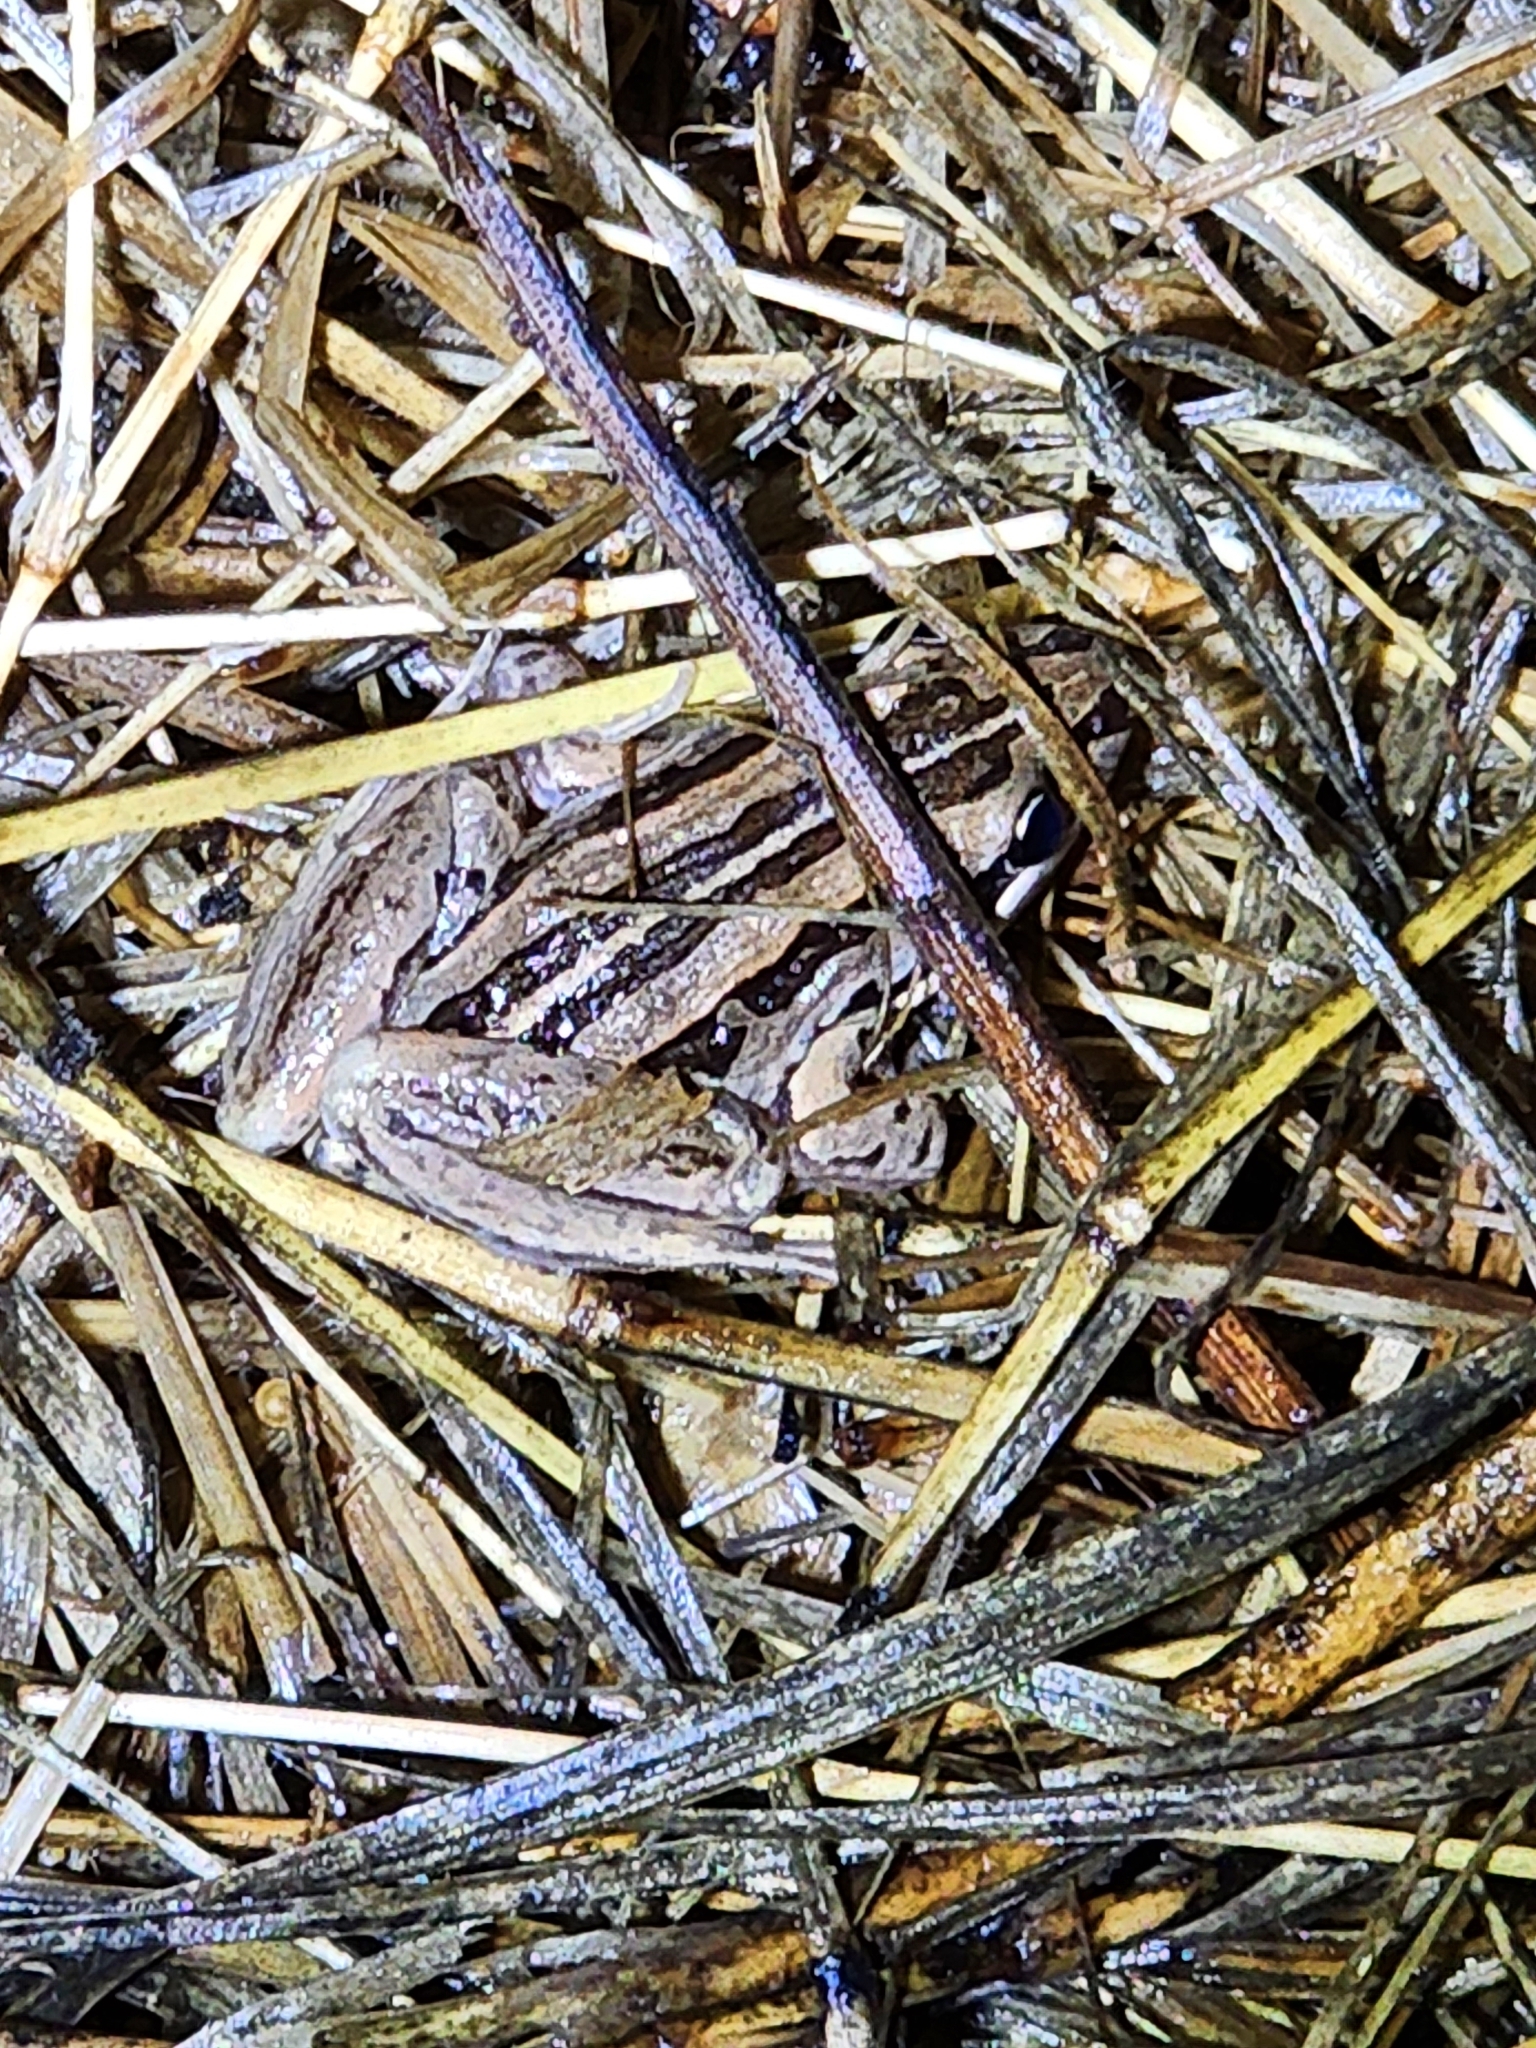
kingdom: Animalia
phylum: Chordata
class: Amphibia
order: Anura
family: Limnodynastidae
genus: Limnodynastes
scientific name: Limnodynastes peronii
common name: Brown frog
